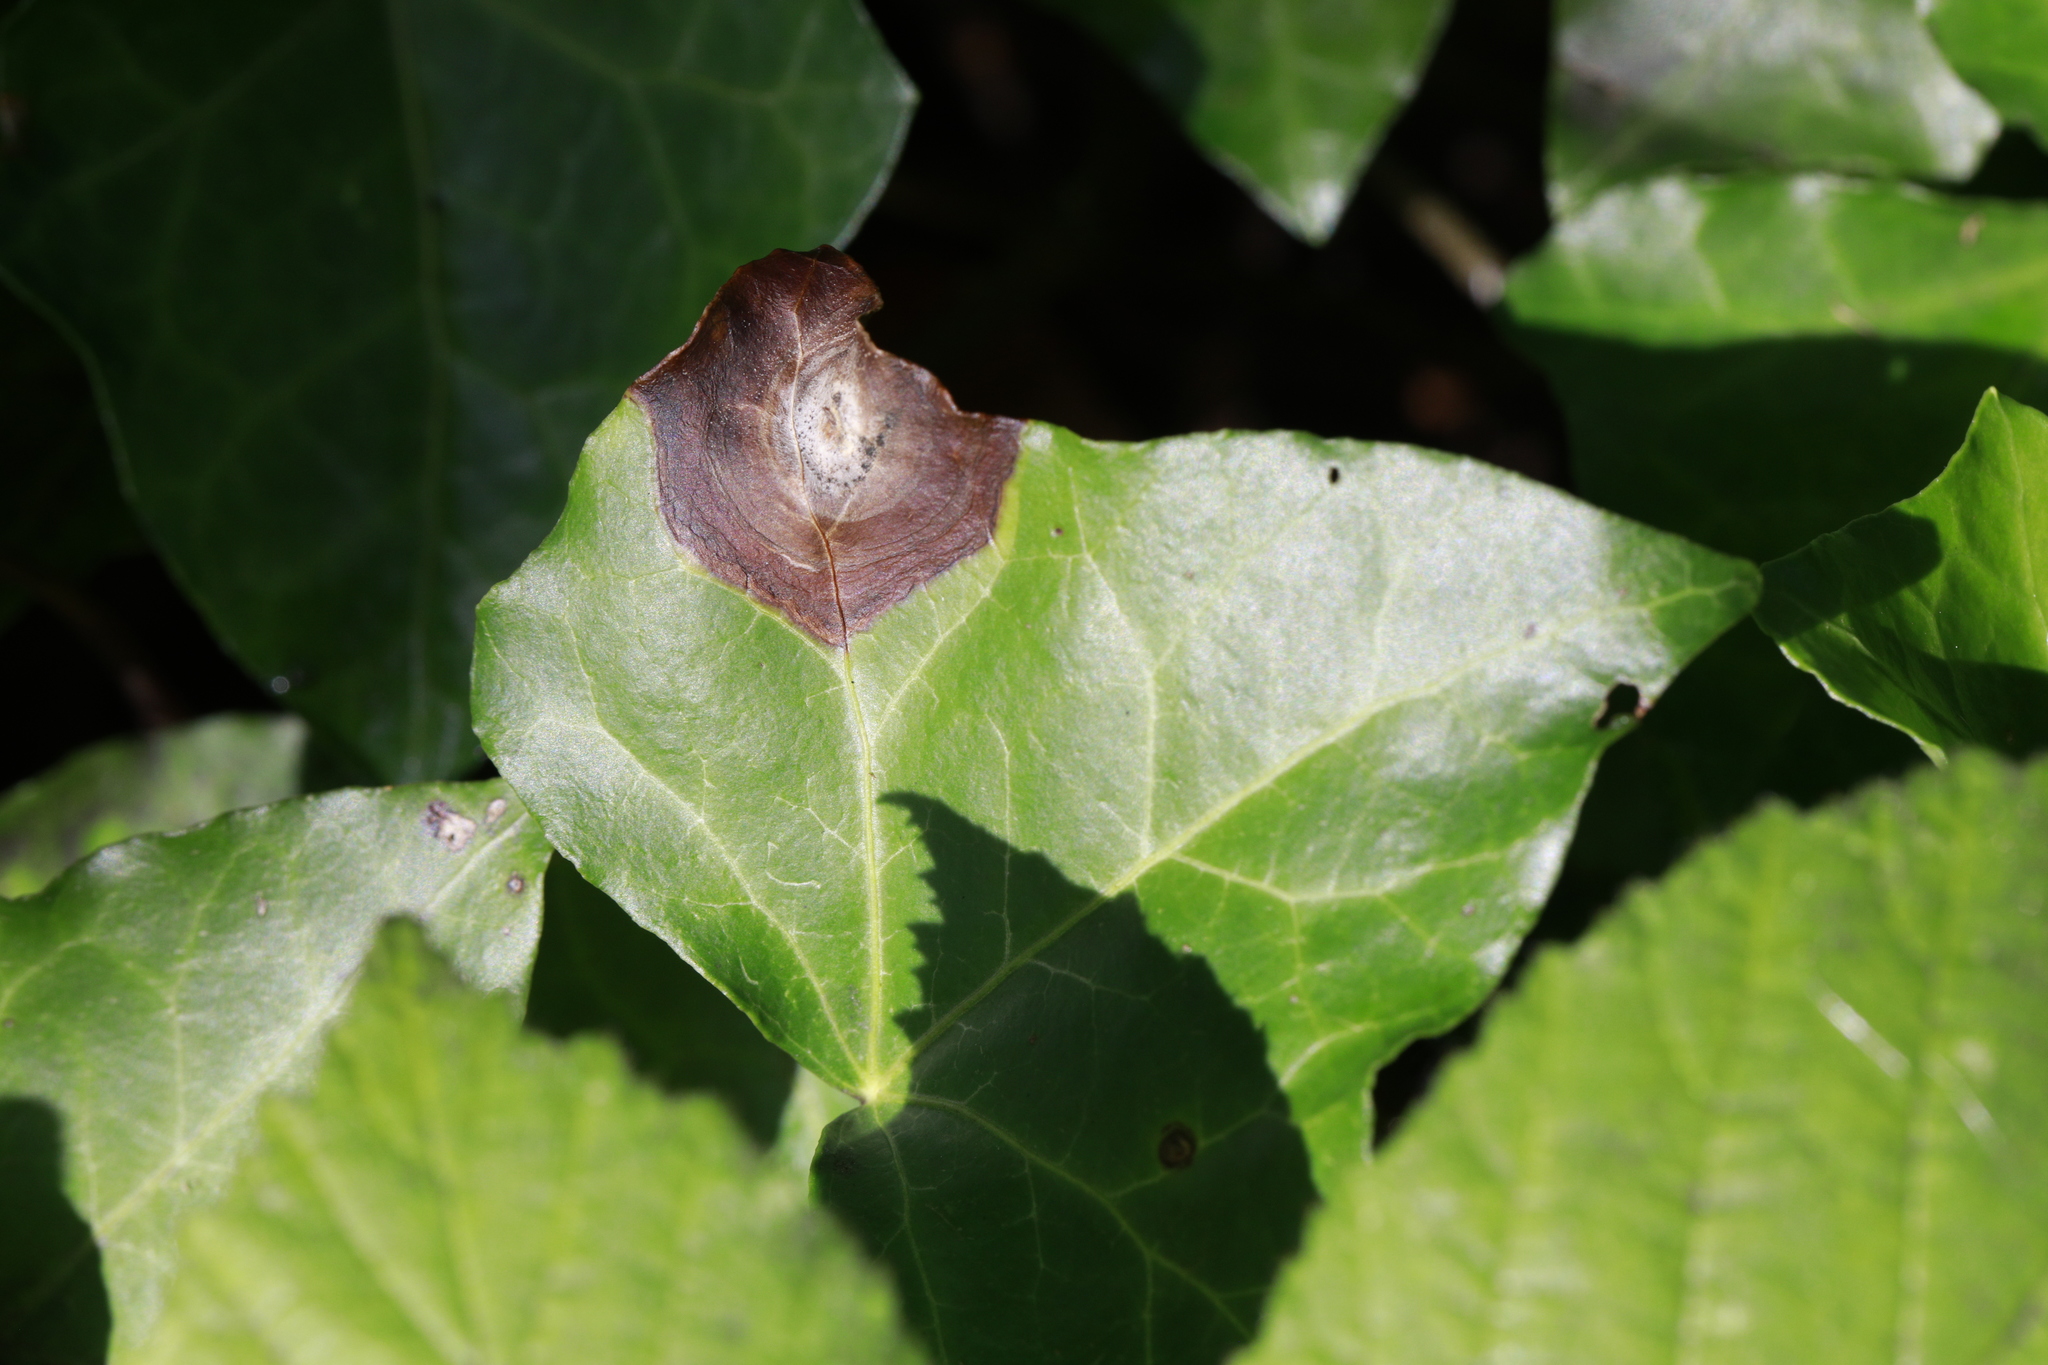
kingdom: Fungi
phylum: Ascomycota
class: Dothideomycetes
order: Pleosporales
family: Didymellaceae
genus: Boeremia
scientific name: Boeremia hedericola
